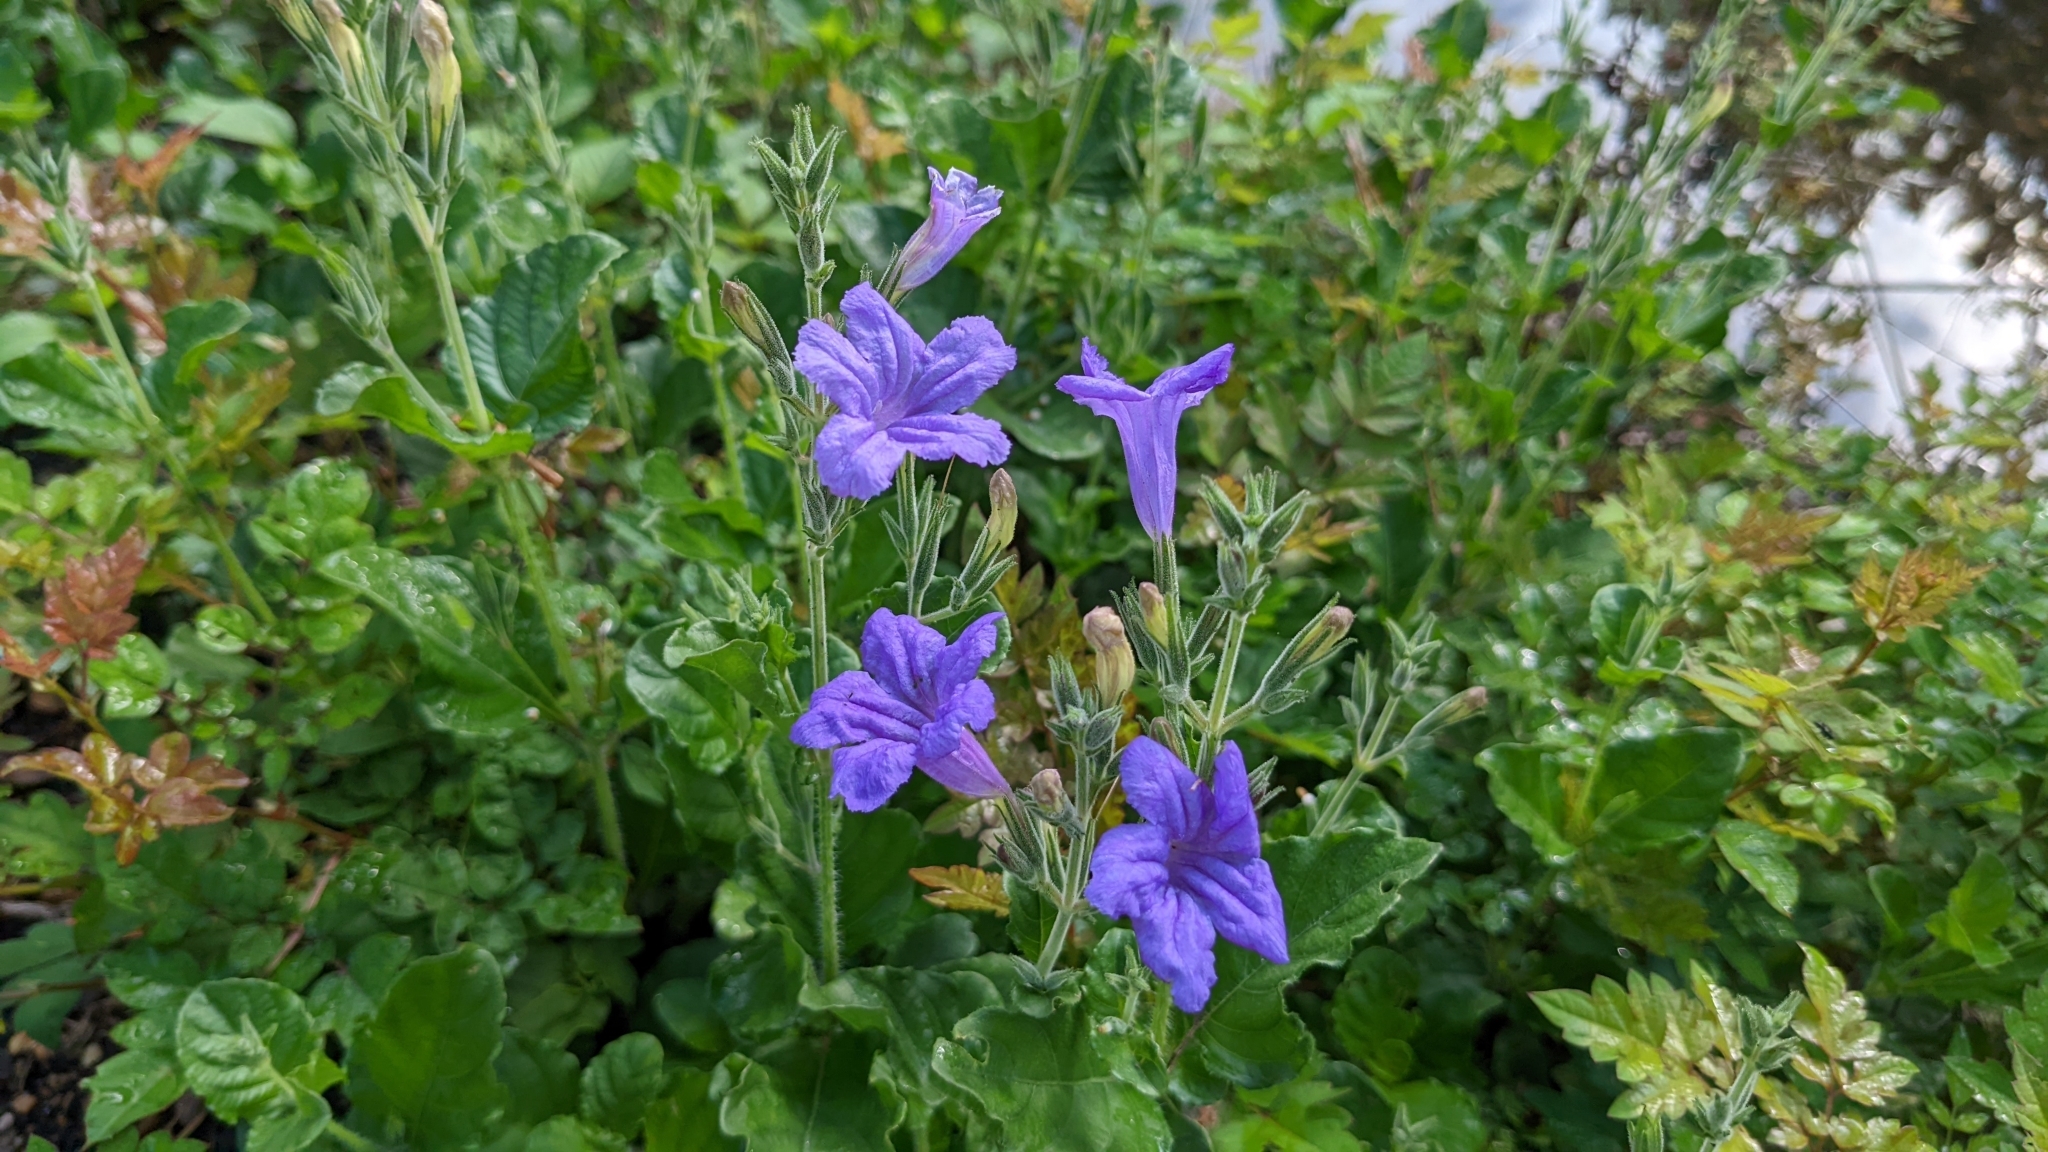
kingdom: Plantae
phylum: Tracheophyta
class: Magnoliopsida
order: Lamiales
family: Acanthaceae
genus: Ruellia
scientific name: Ruellia ciliatiflora
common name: Hairyflower wild petunia
